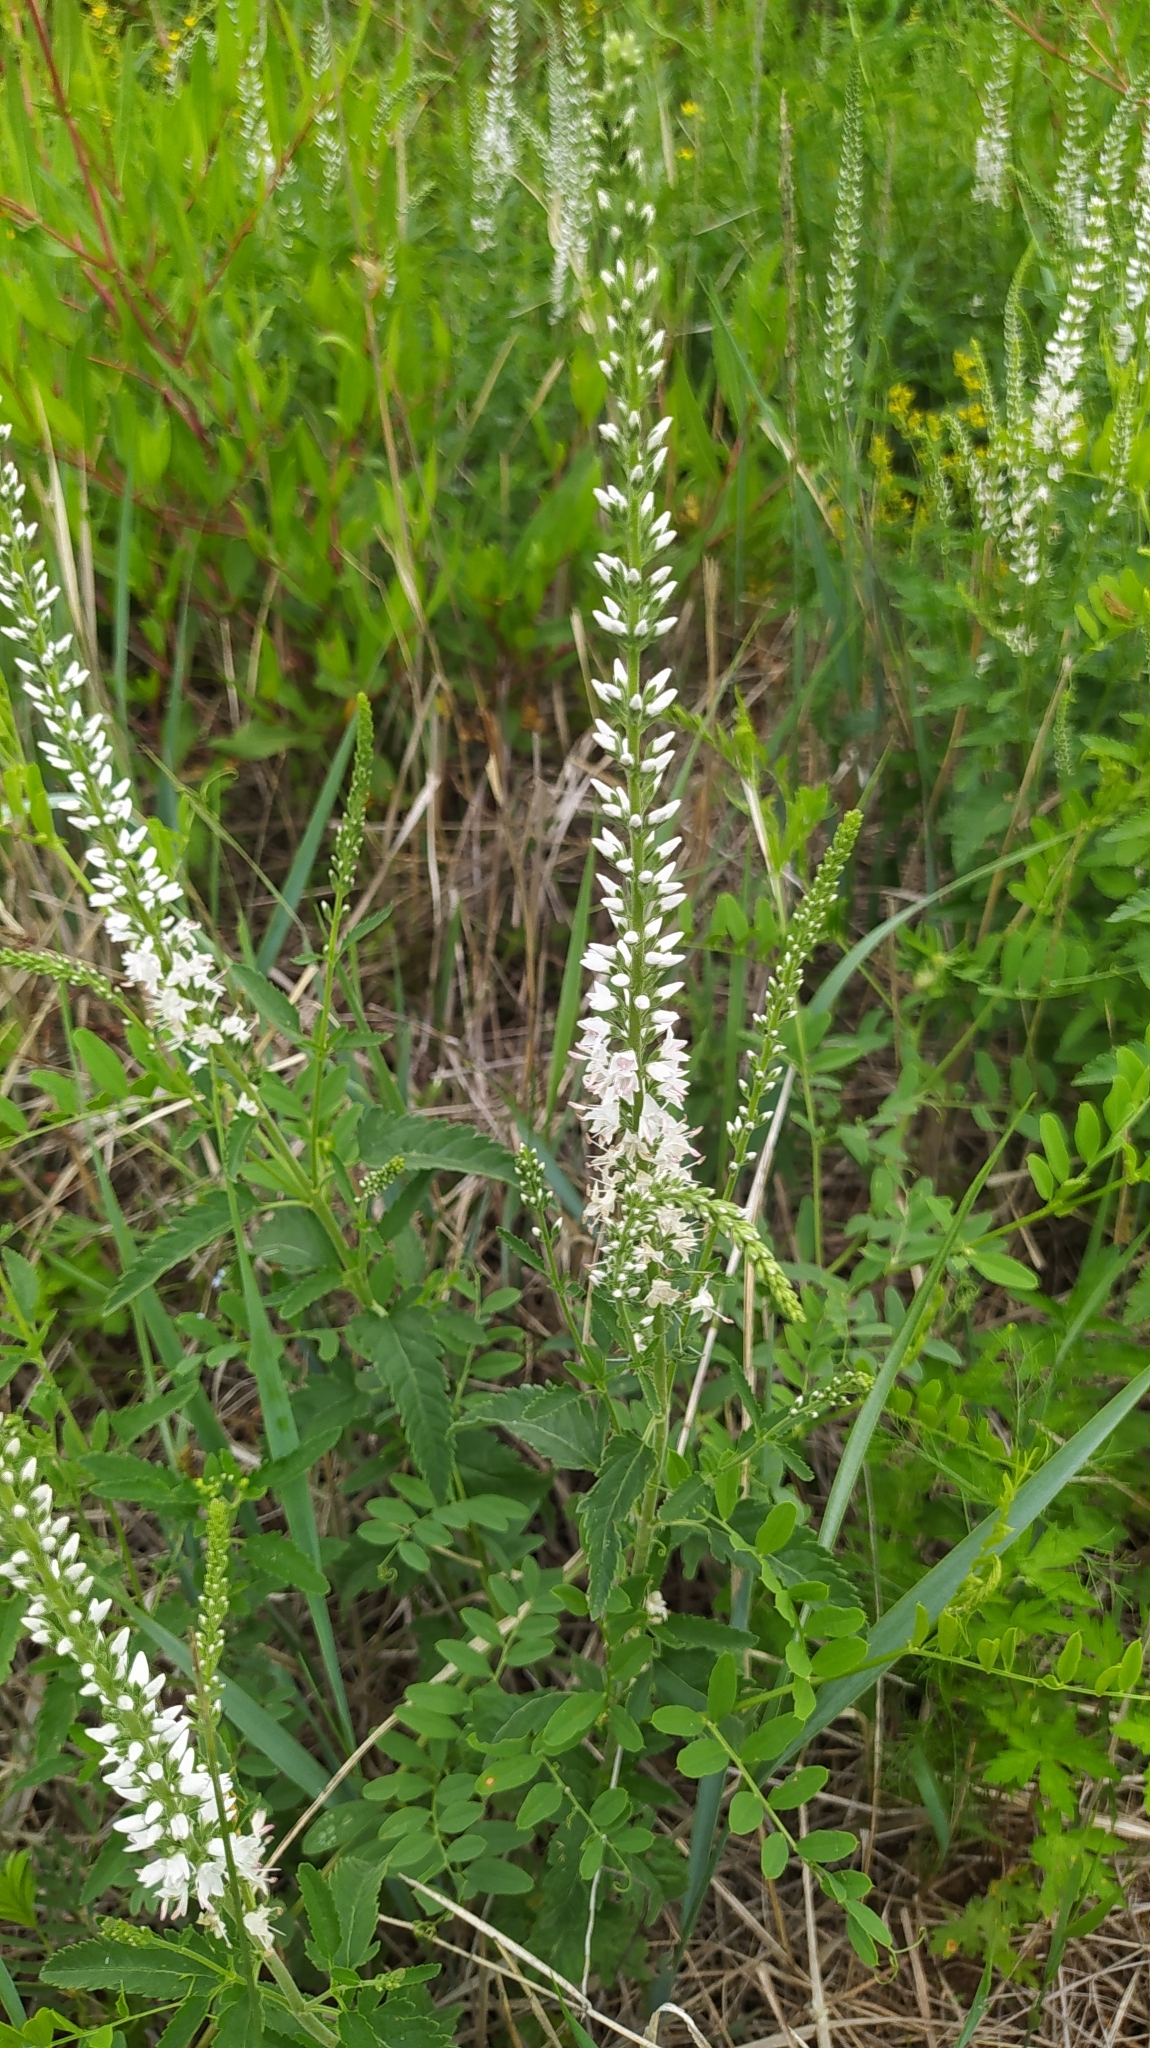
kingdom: Plantae
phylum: Tracheophyta
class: Magnoliopsida
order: Lamiales
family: Plantaginaceae
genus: Veronica
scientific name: Veronica daurica
